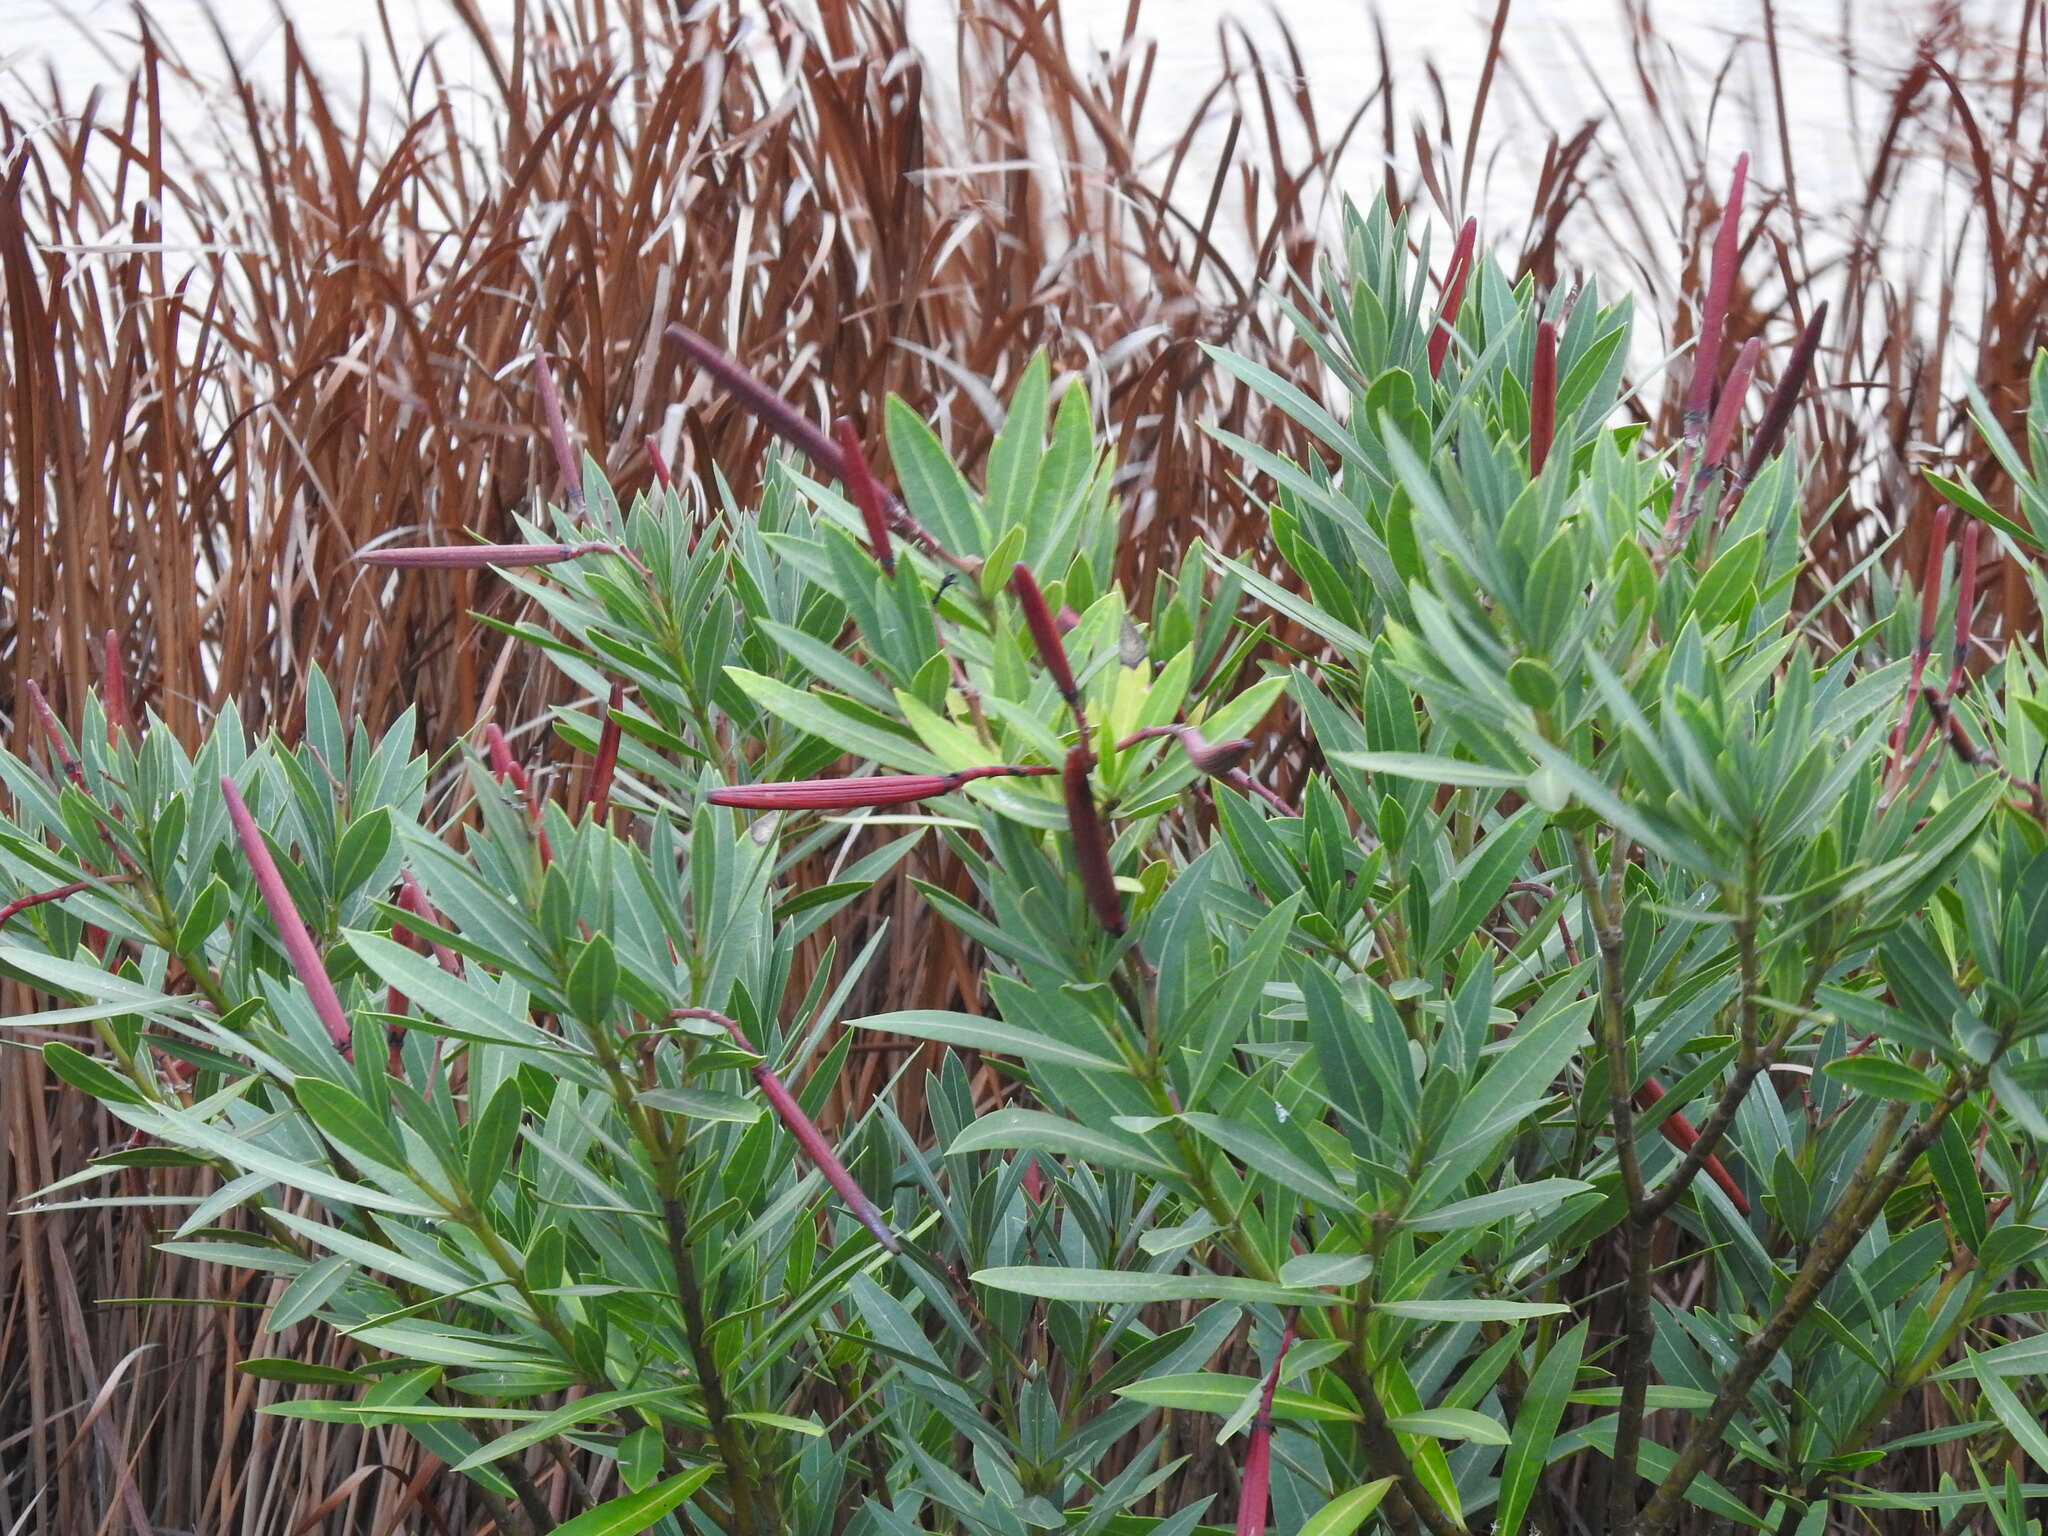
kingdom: Plantae
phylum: Tracheophyta
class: Magnoliopsida
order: Gentianales
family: Apocynaceae
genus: Nerium
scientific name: Nerium oleander
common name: Oleander
